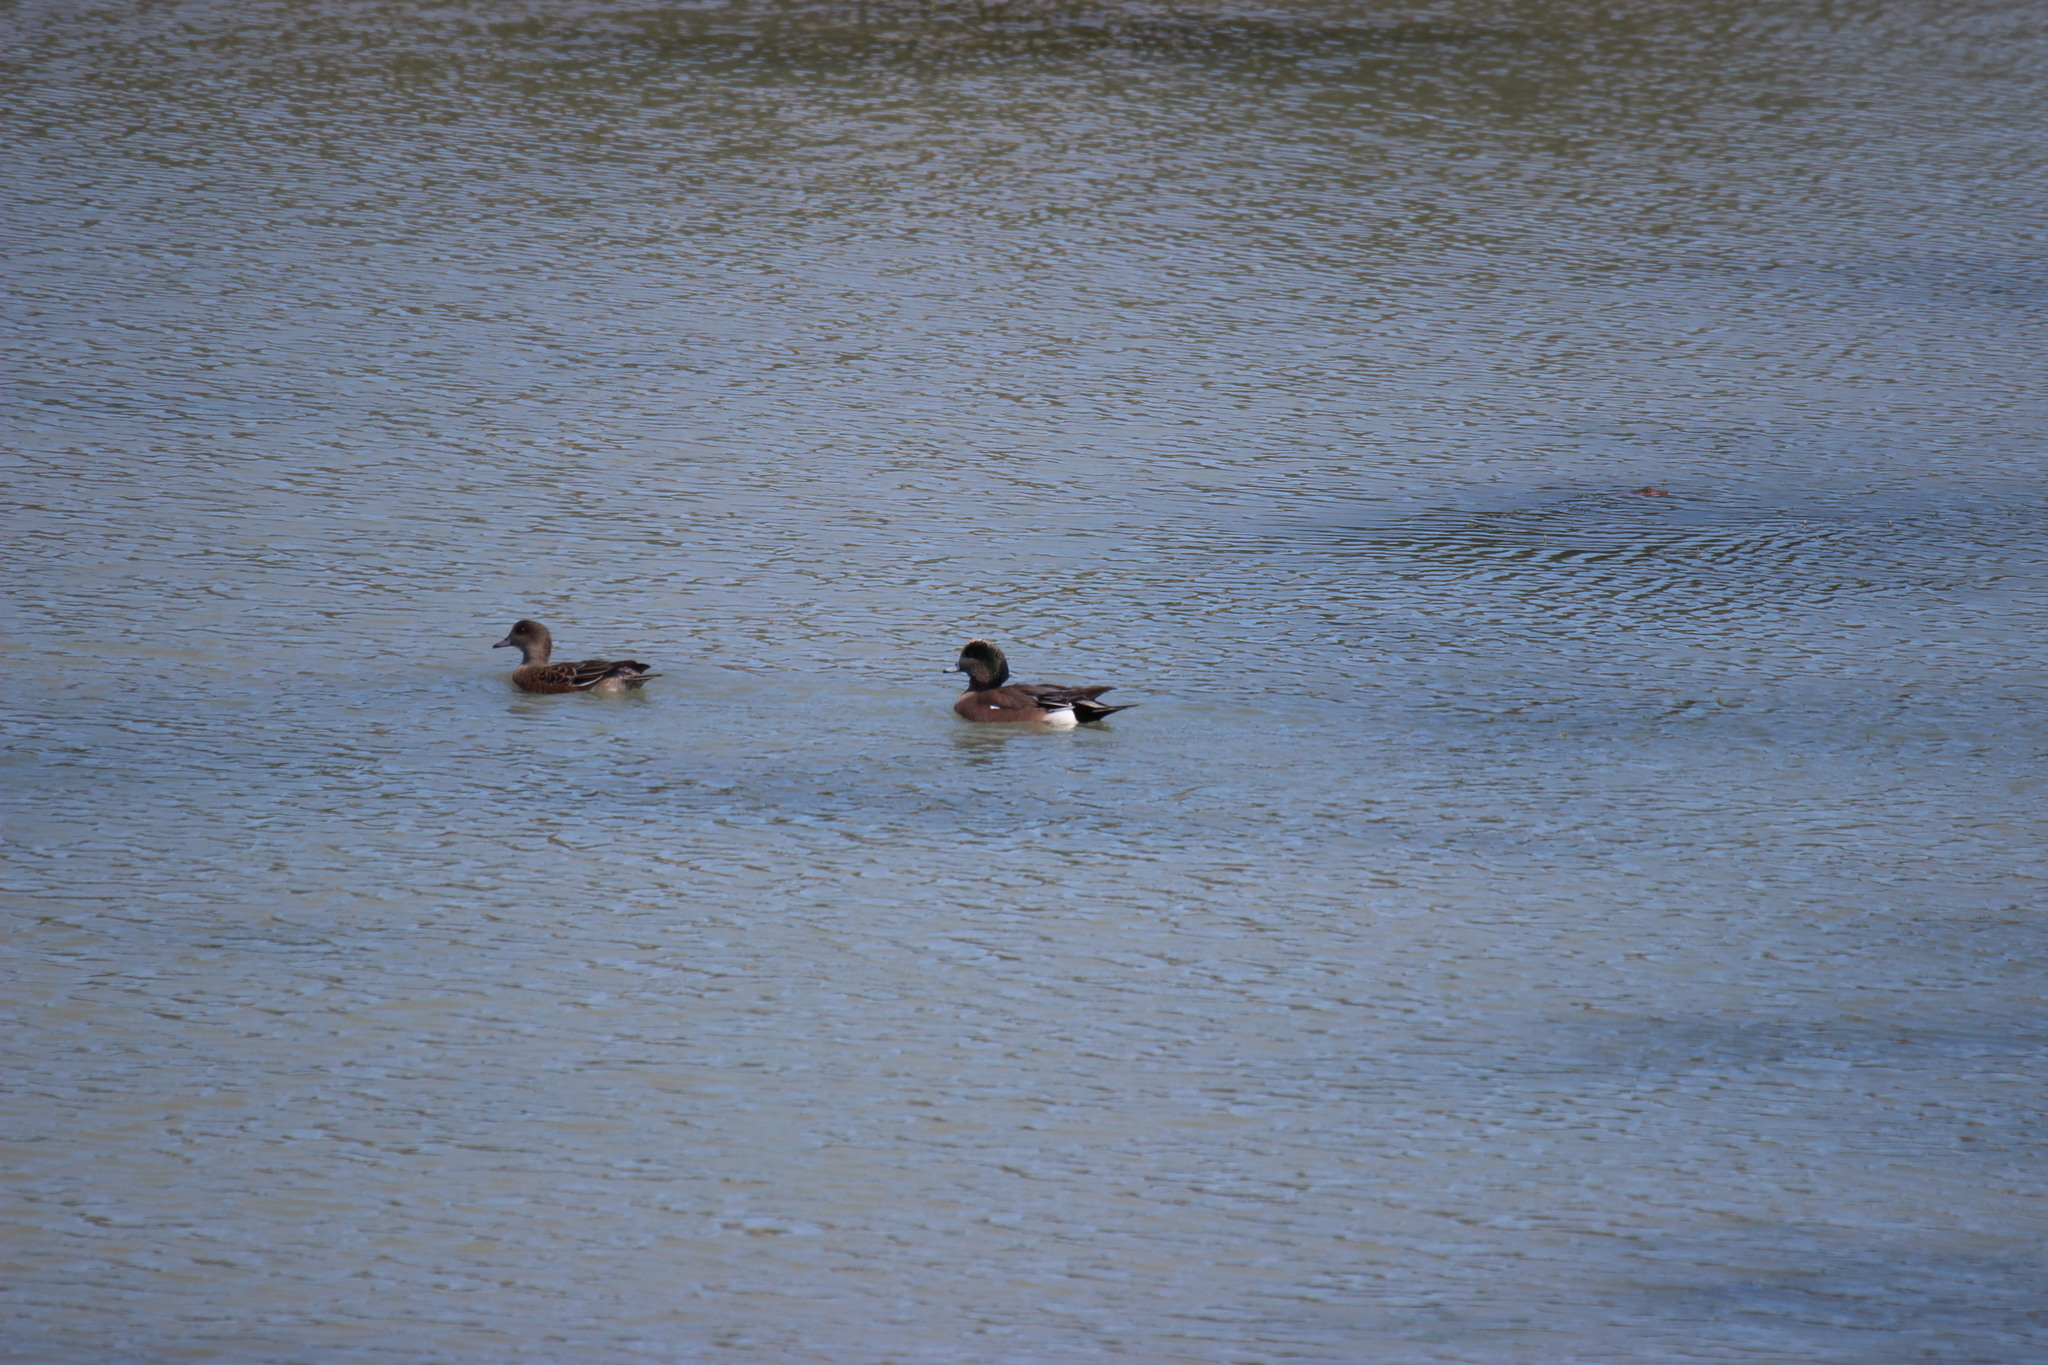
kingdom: Animalia
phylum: Chordata
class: Aves
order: Anseriformes
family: Anatidae
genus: Mareca
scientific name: Mareca americana
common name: American wigeon
